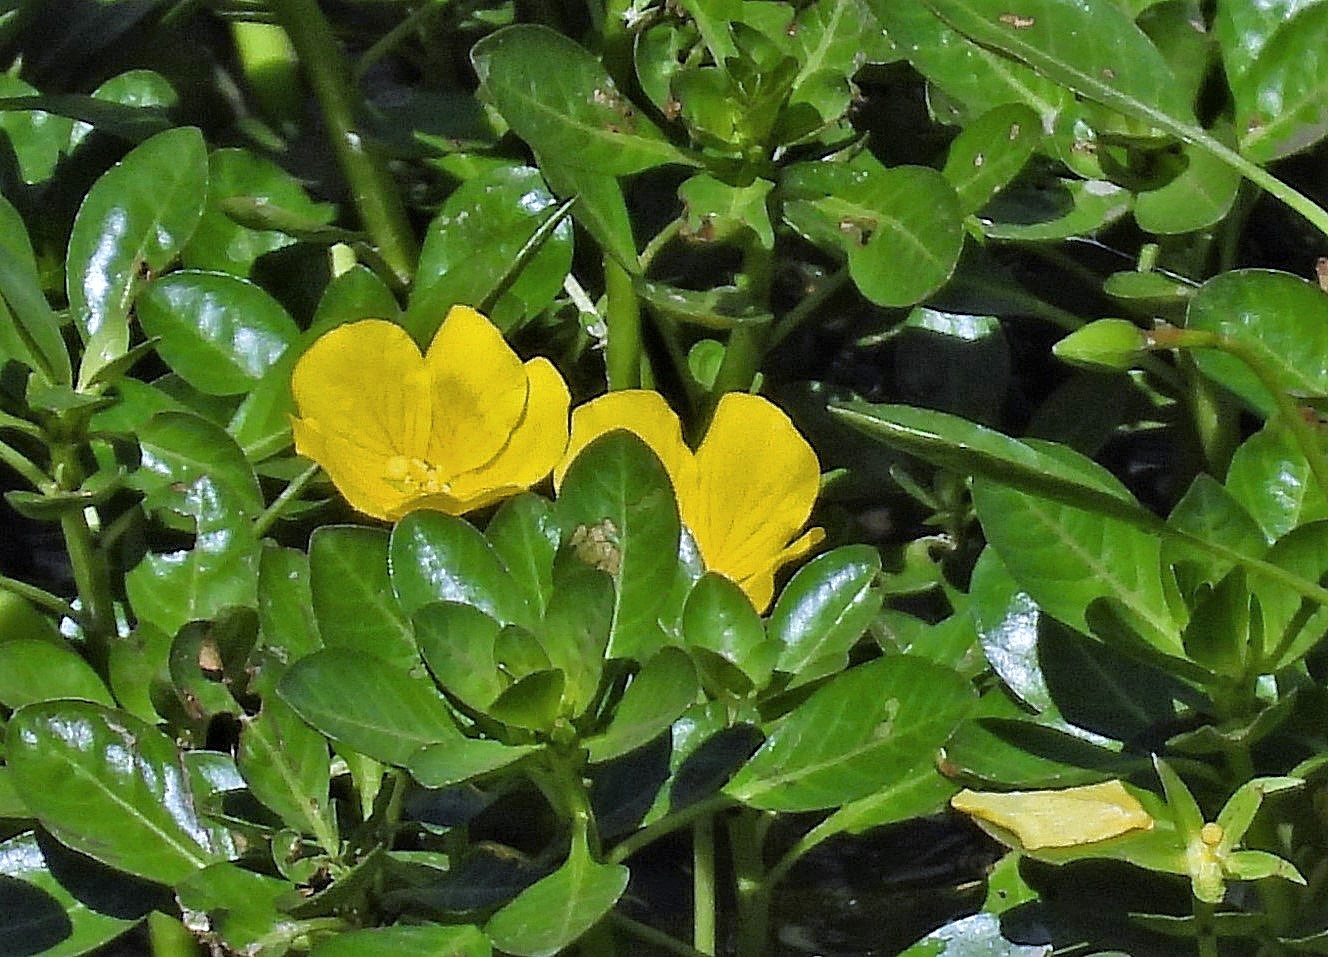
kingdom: Plantae
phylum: Tracheophyta
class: Magnoliopsida
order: Myrtales
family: Onagraceae
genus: Ludwigia
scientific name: Ludwigia peploides
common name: Floating primrose-willow
